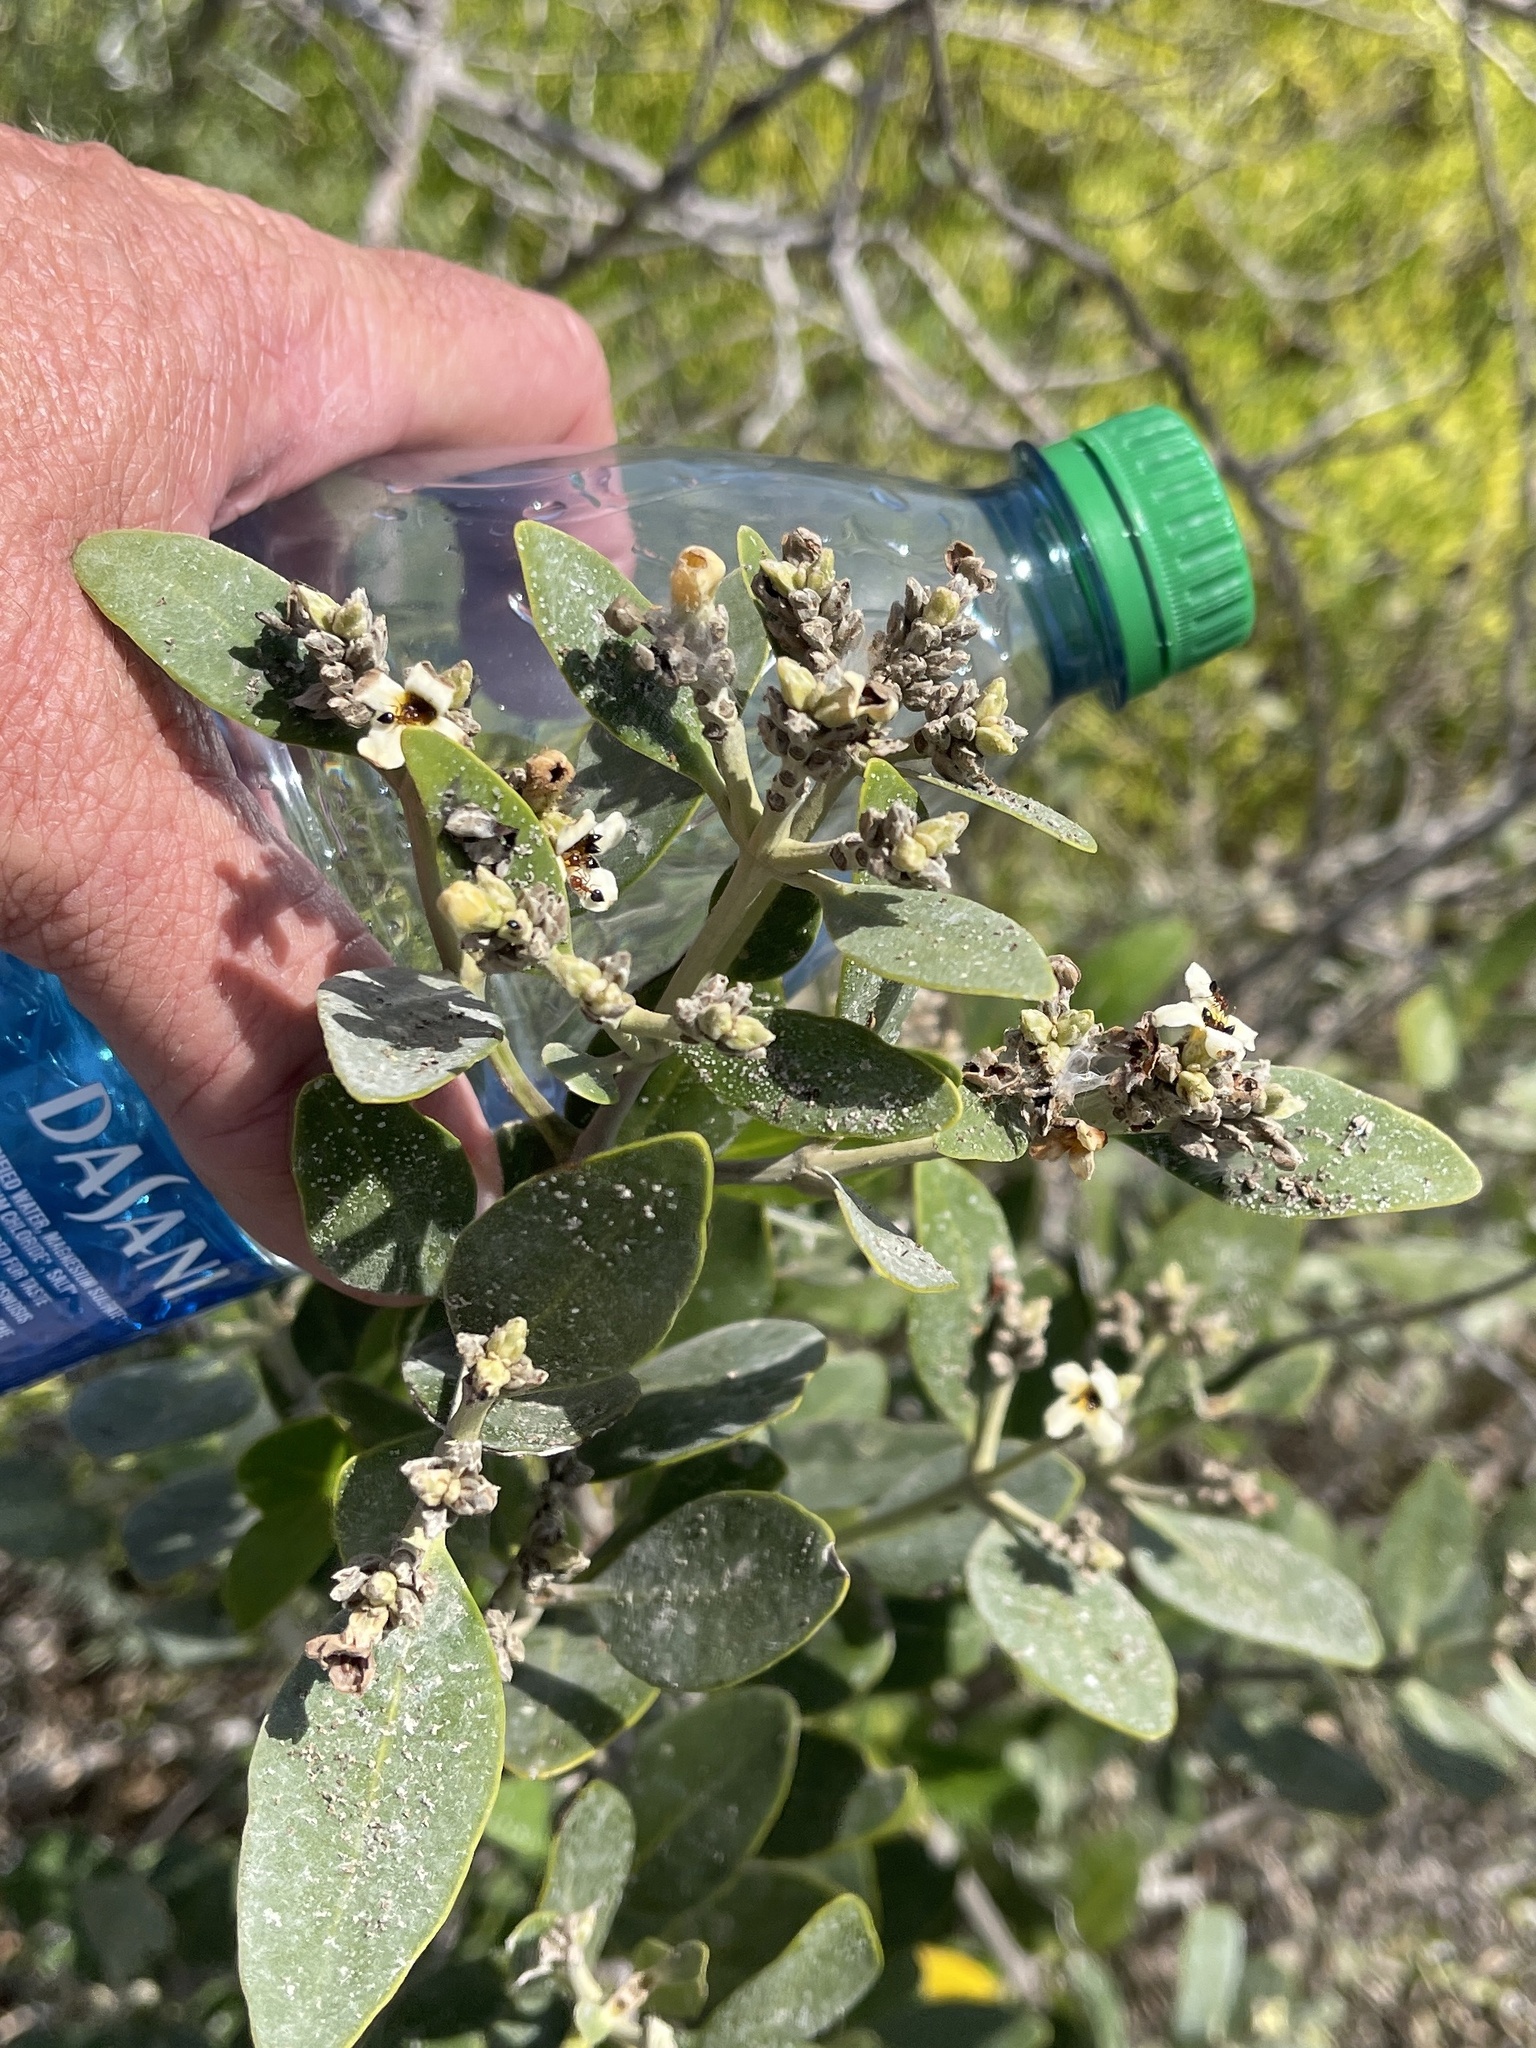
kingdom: Plantae
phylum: Tracheophyta
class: Magnoliopsida
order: Lamiales
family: Acanthaceae
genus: Avicennia
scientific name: Avicennia germinans
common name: Black mangrove
